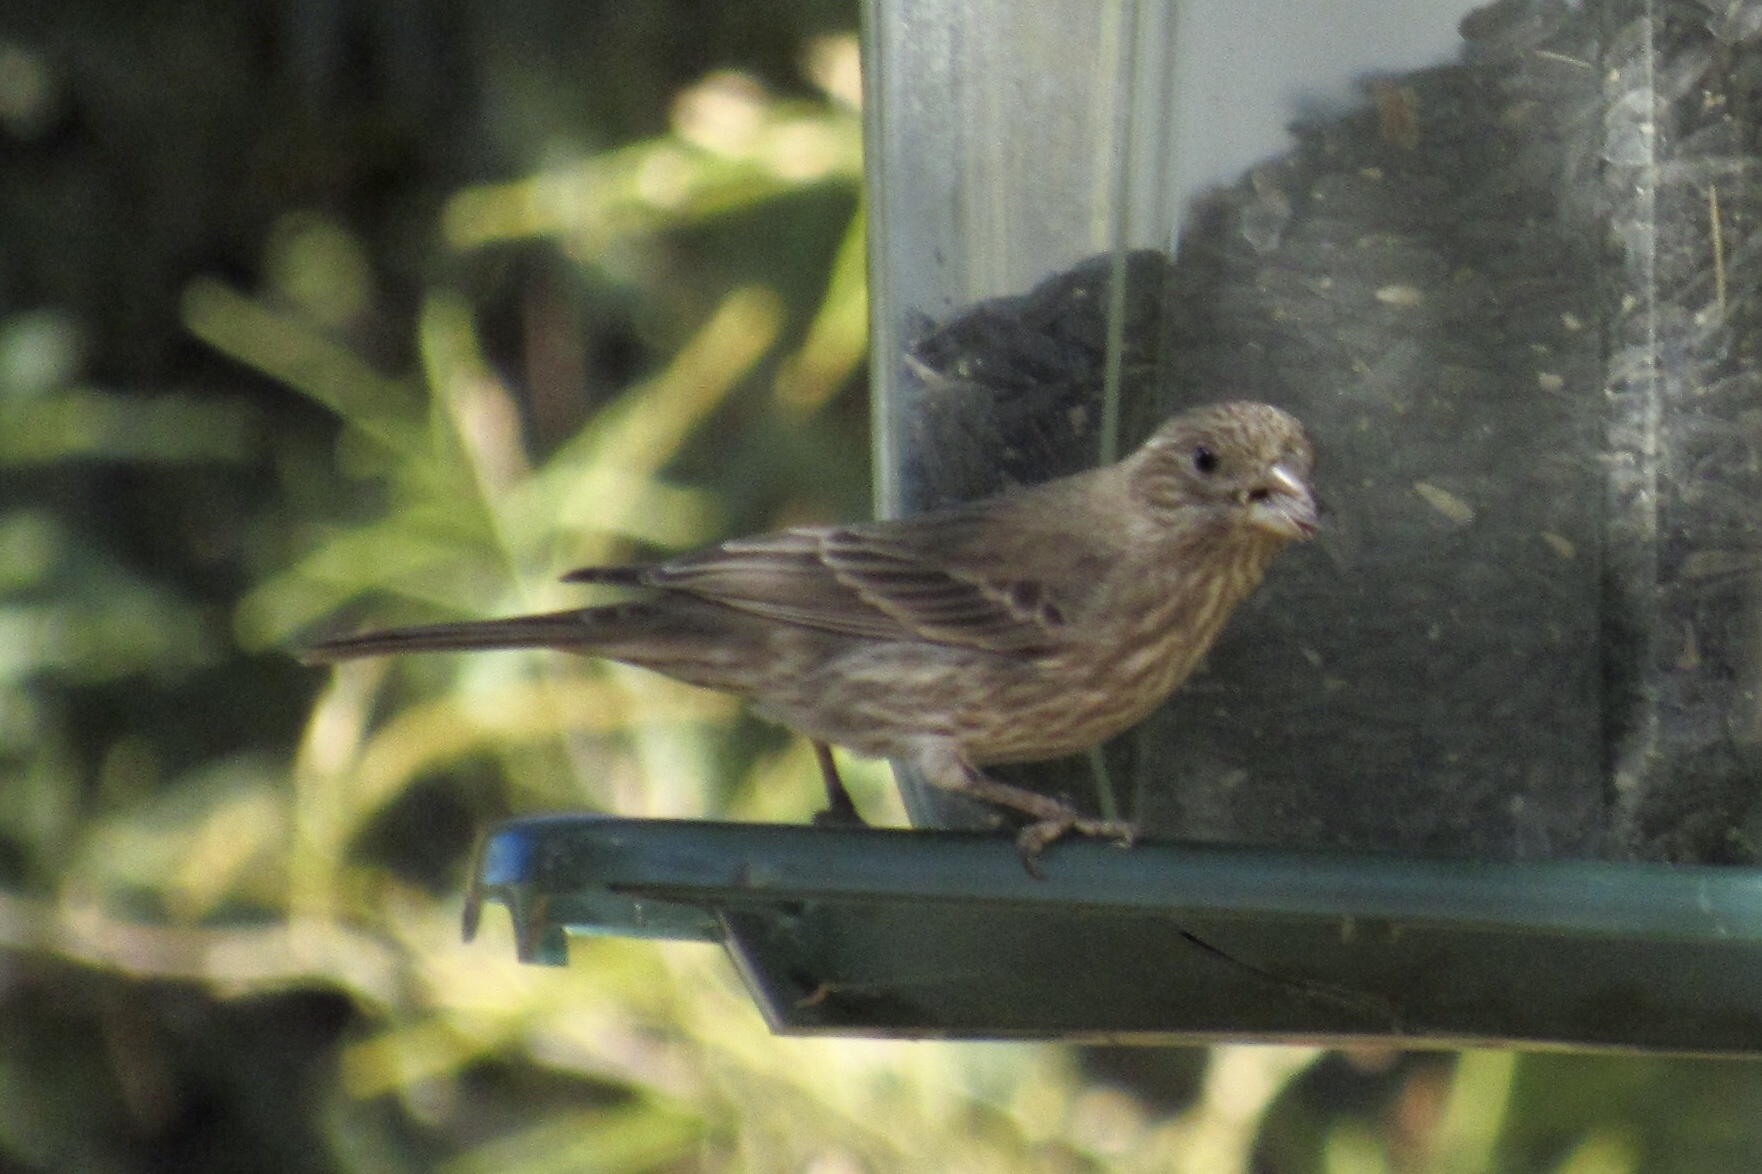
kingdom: Animalia
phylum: Chordata
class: Aves
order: Passeriformes
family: Fringillidae
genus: Haemorhous
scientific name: Haemorhous mexicanus
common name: House finch
